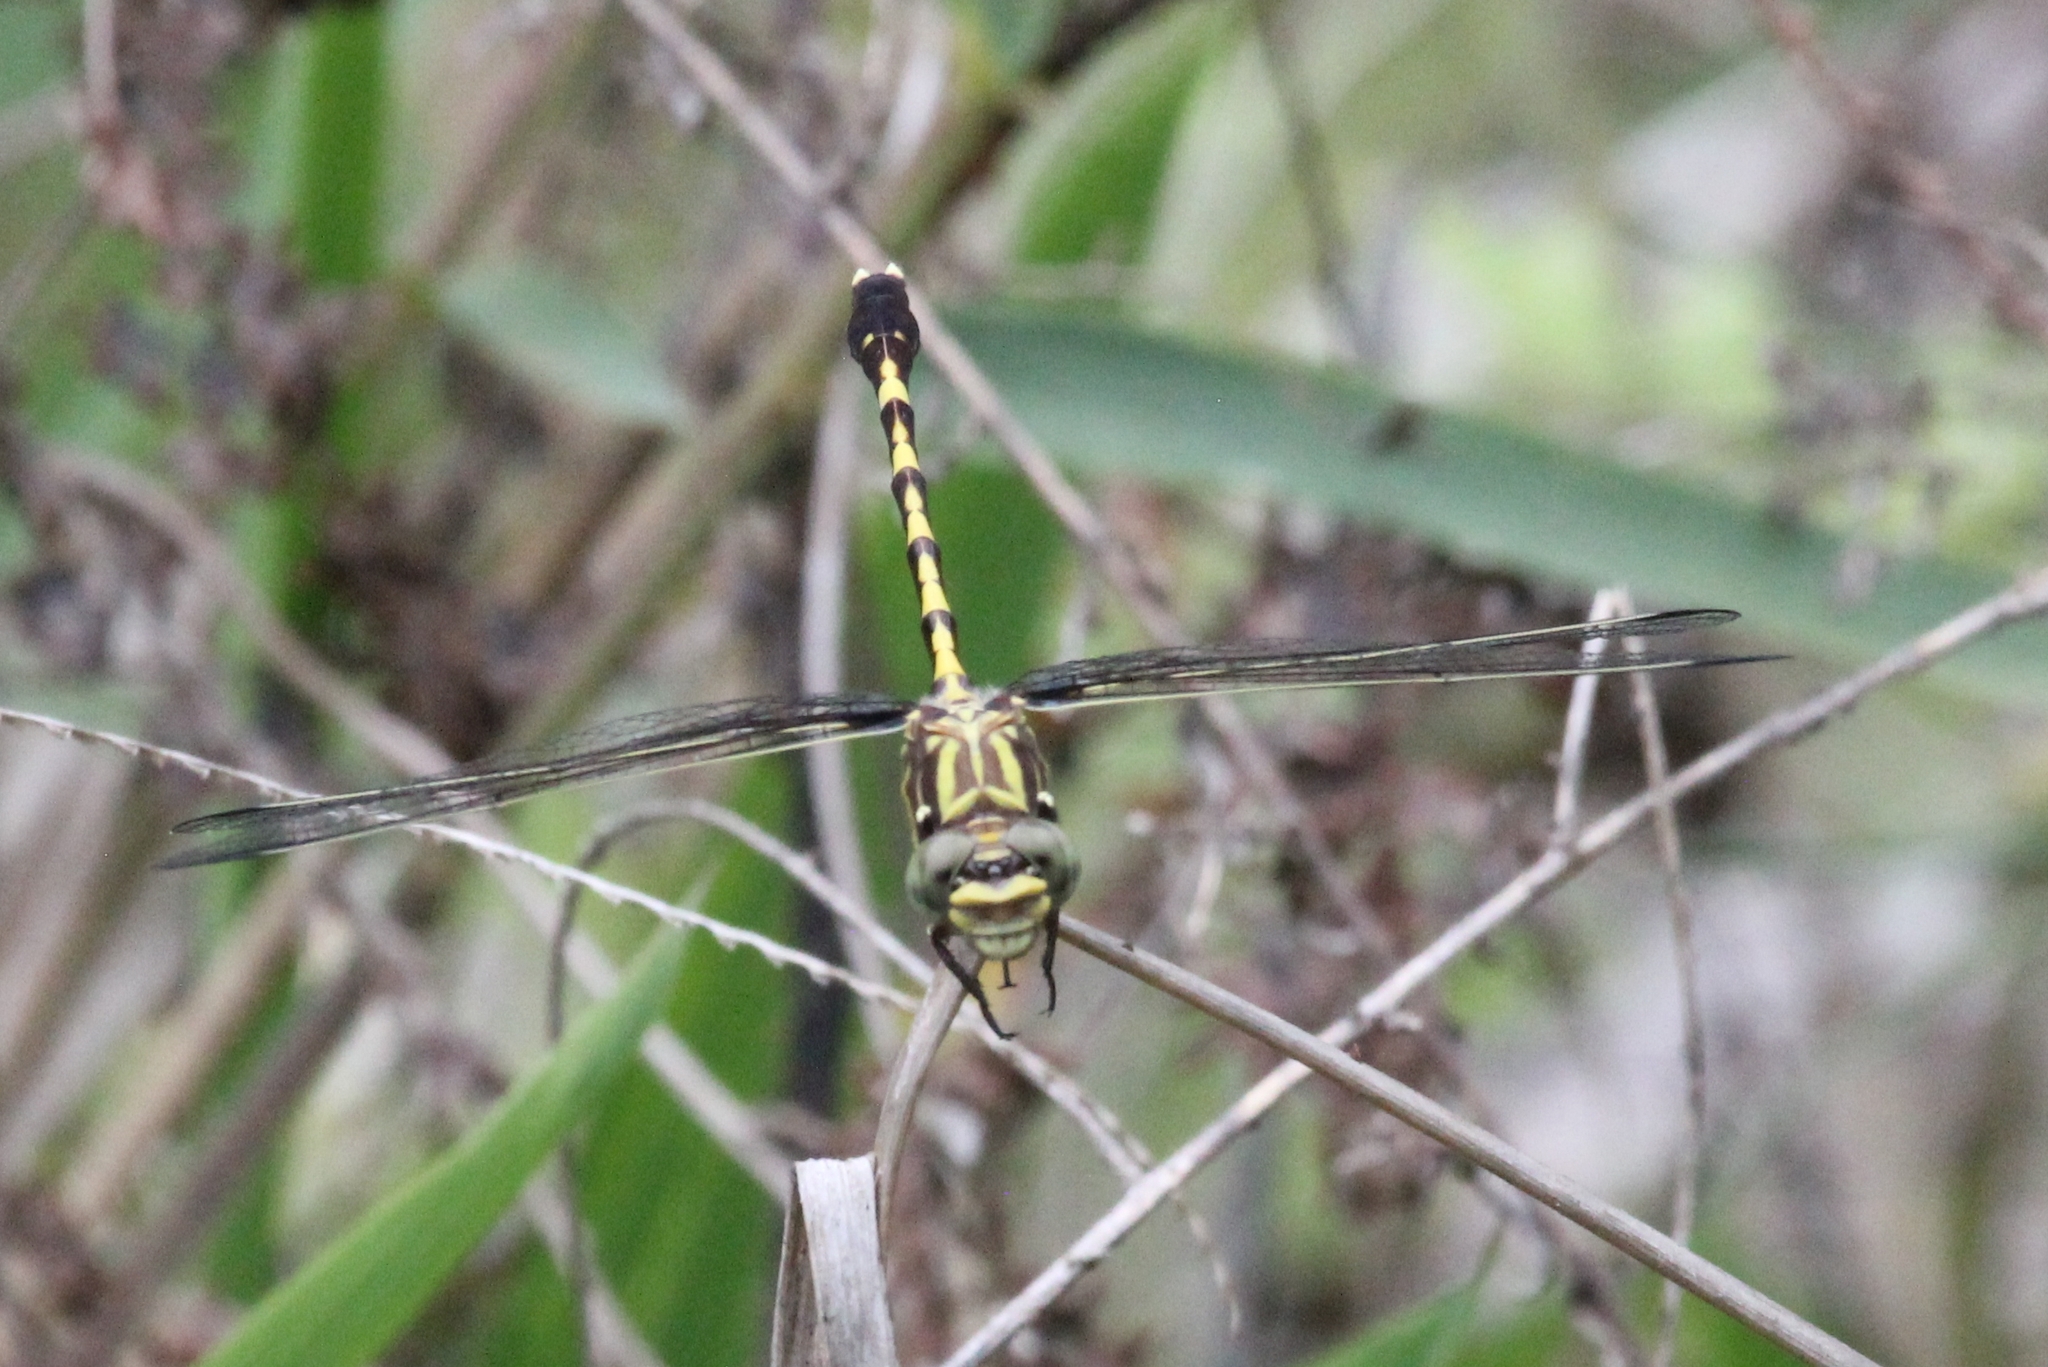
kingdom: Animalia
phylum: Arthropoda
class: Insecta
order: Odonata
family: Gomphidae
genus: Progomphus
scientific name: Progomphus obscurus
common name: Common sanddragon
